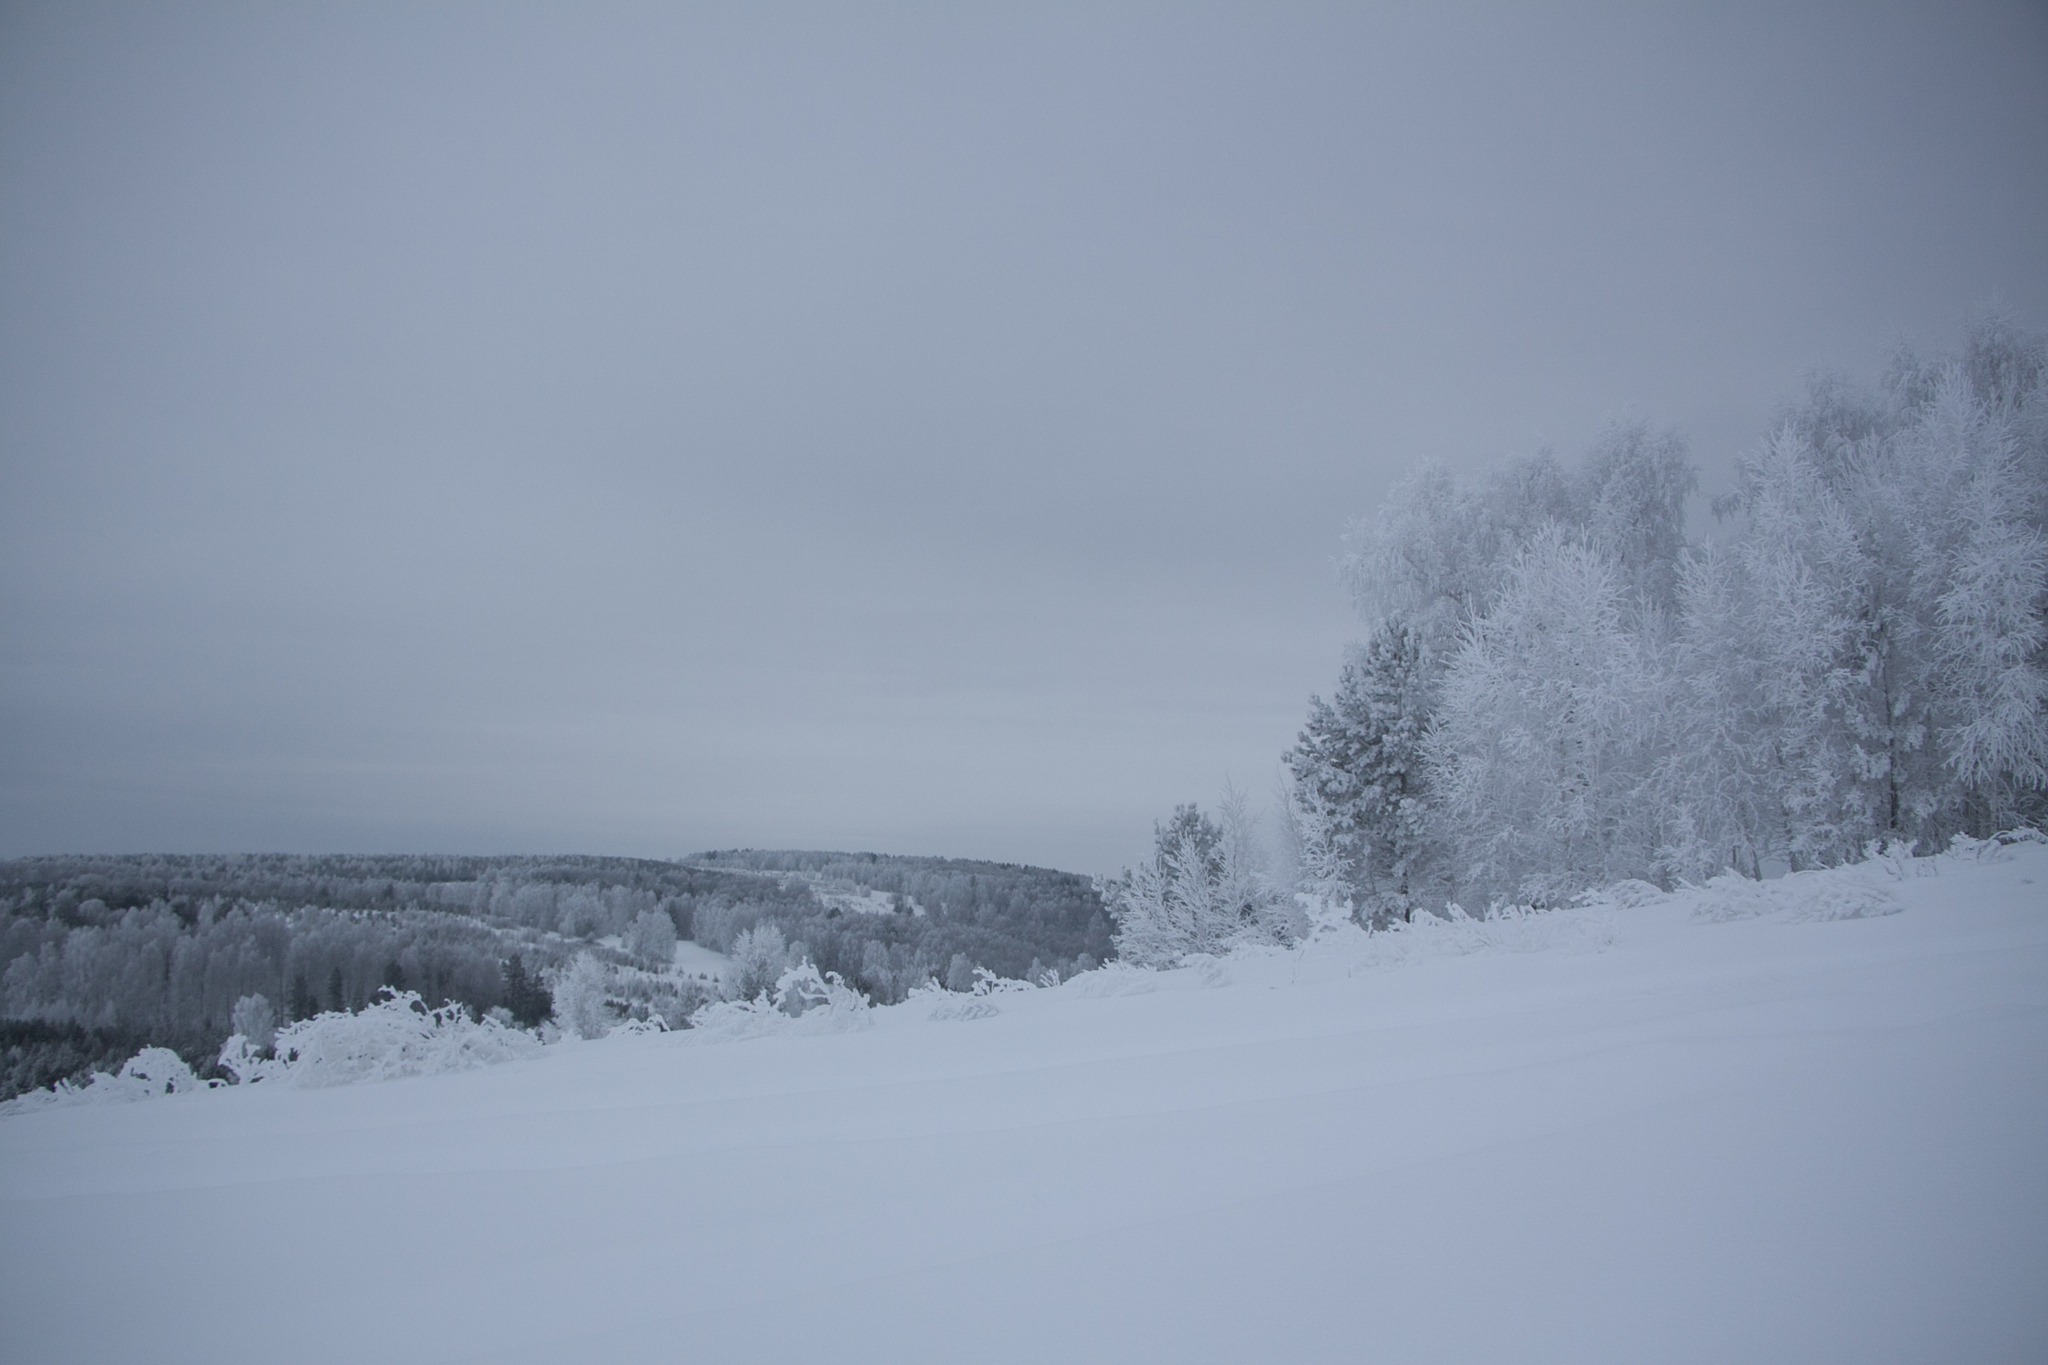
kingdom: Plantae
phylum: Tracheophyta
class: Magnoliopsida
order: Fagales
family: Betulaceae
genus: Betula
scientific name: Betula pendula
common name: Silver birch
